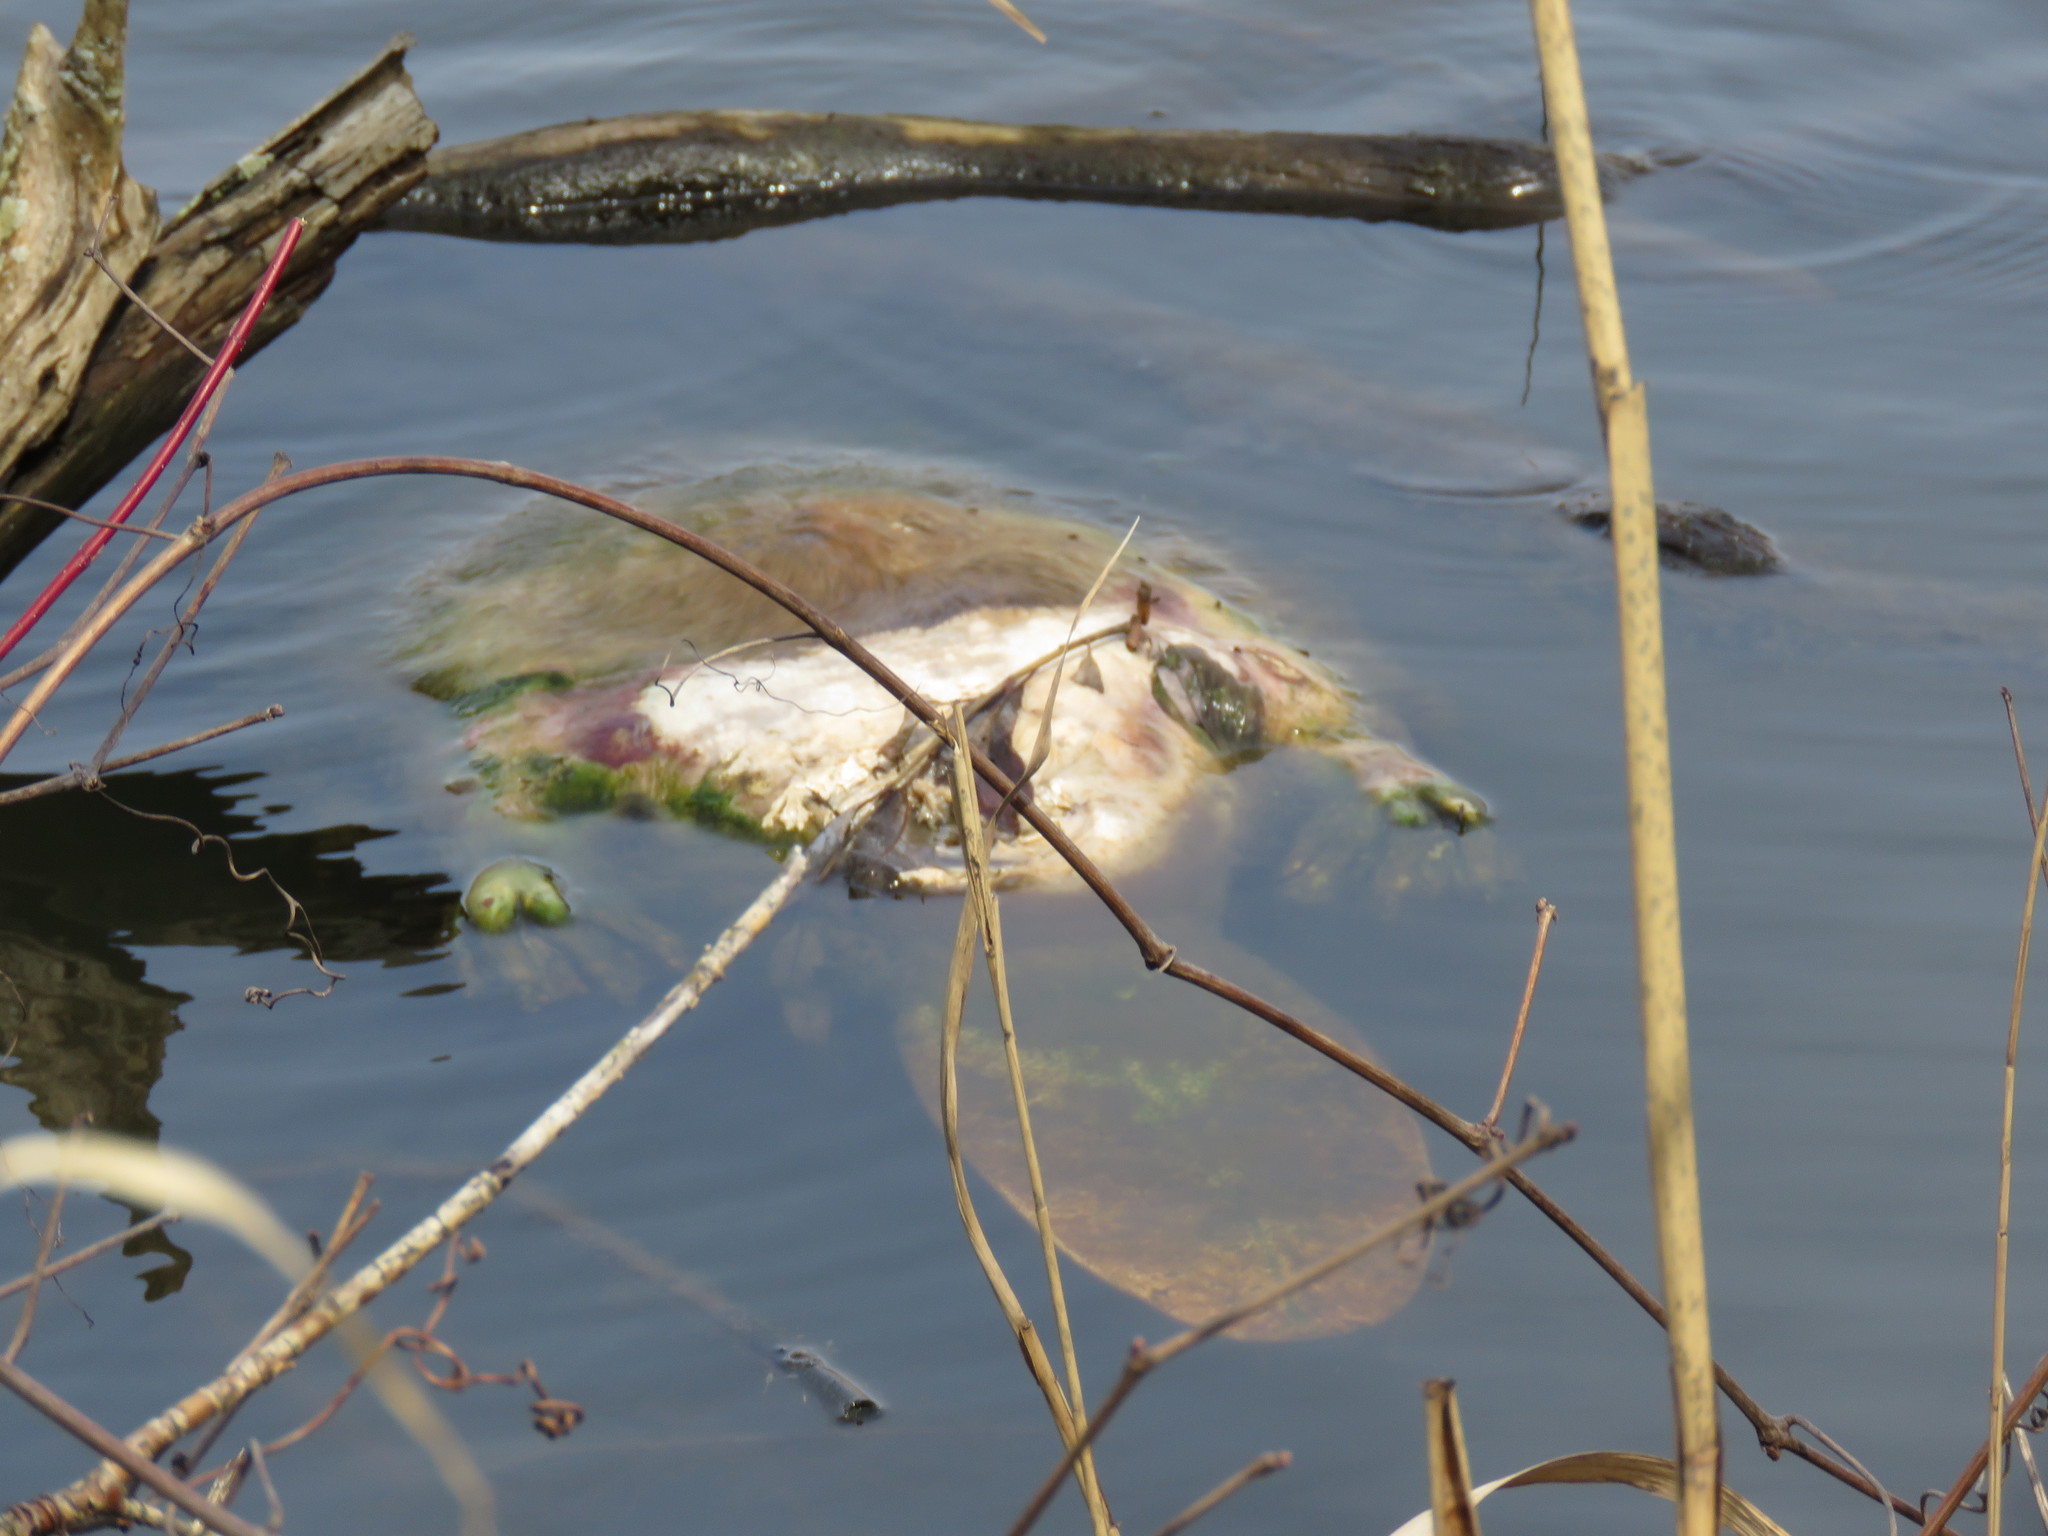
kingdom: Animalia
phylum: Chordata
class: Mammalia
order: Rodentia
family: Castoridae
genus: Castor
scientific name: Castor canadensis
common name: American beaver
